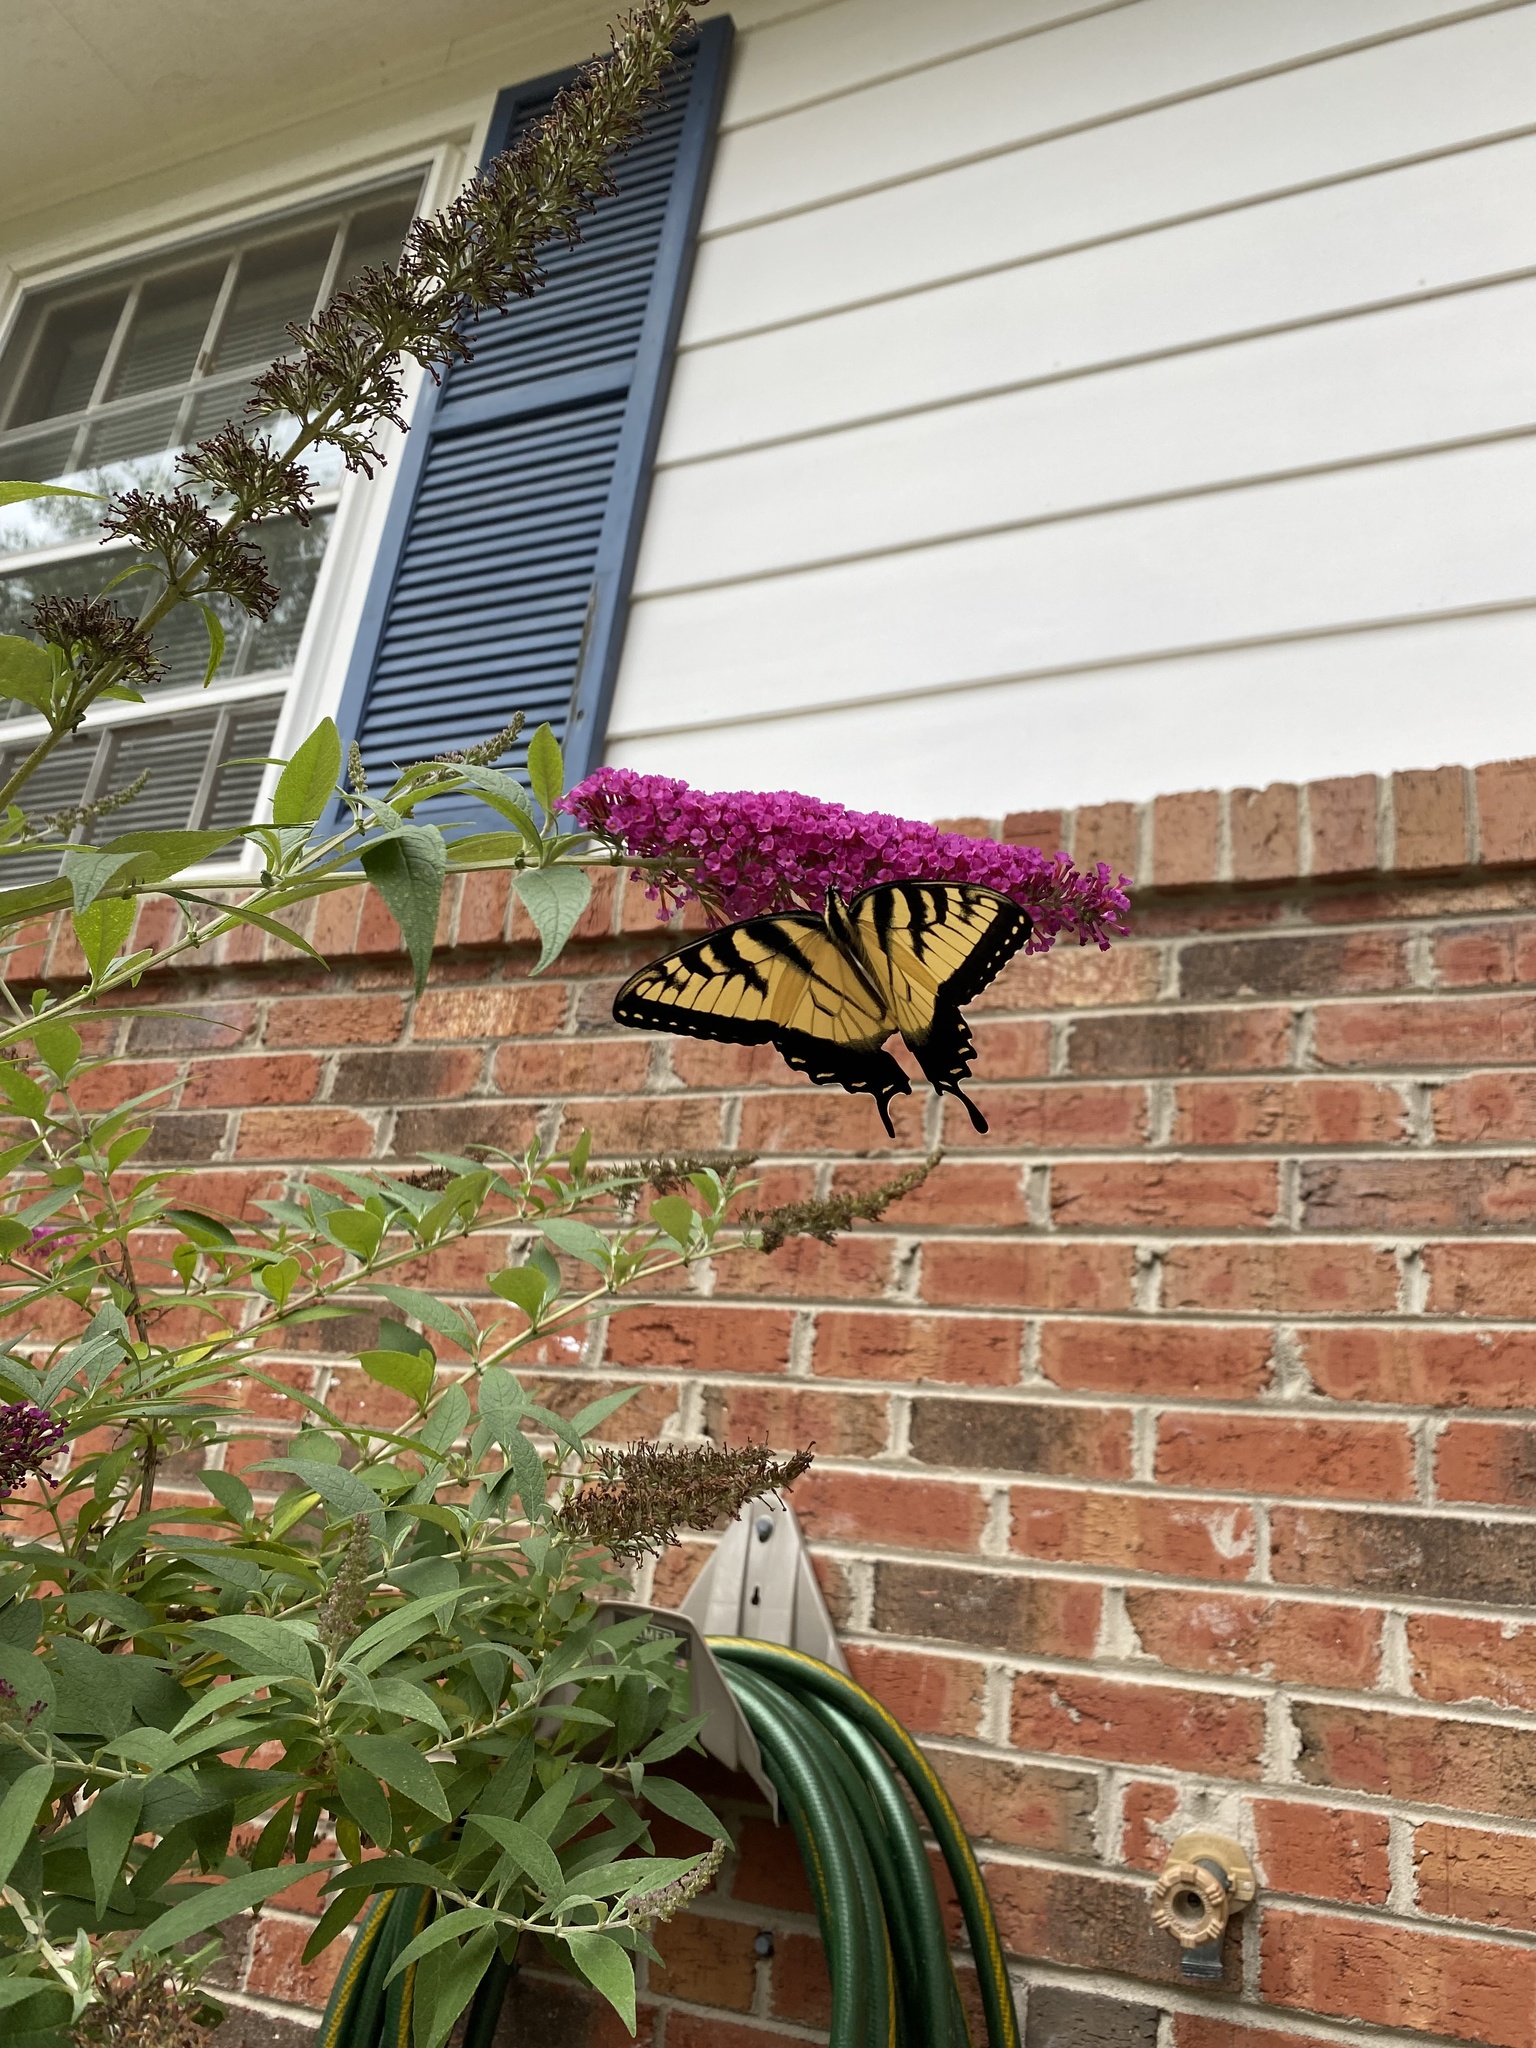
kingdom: Animalia
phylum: Arthropoda
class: Insecta
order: Lepidoptera
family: Papilionidae
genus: Papilio
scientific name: Papilio glaucus
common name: Tiger swallowtail
